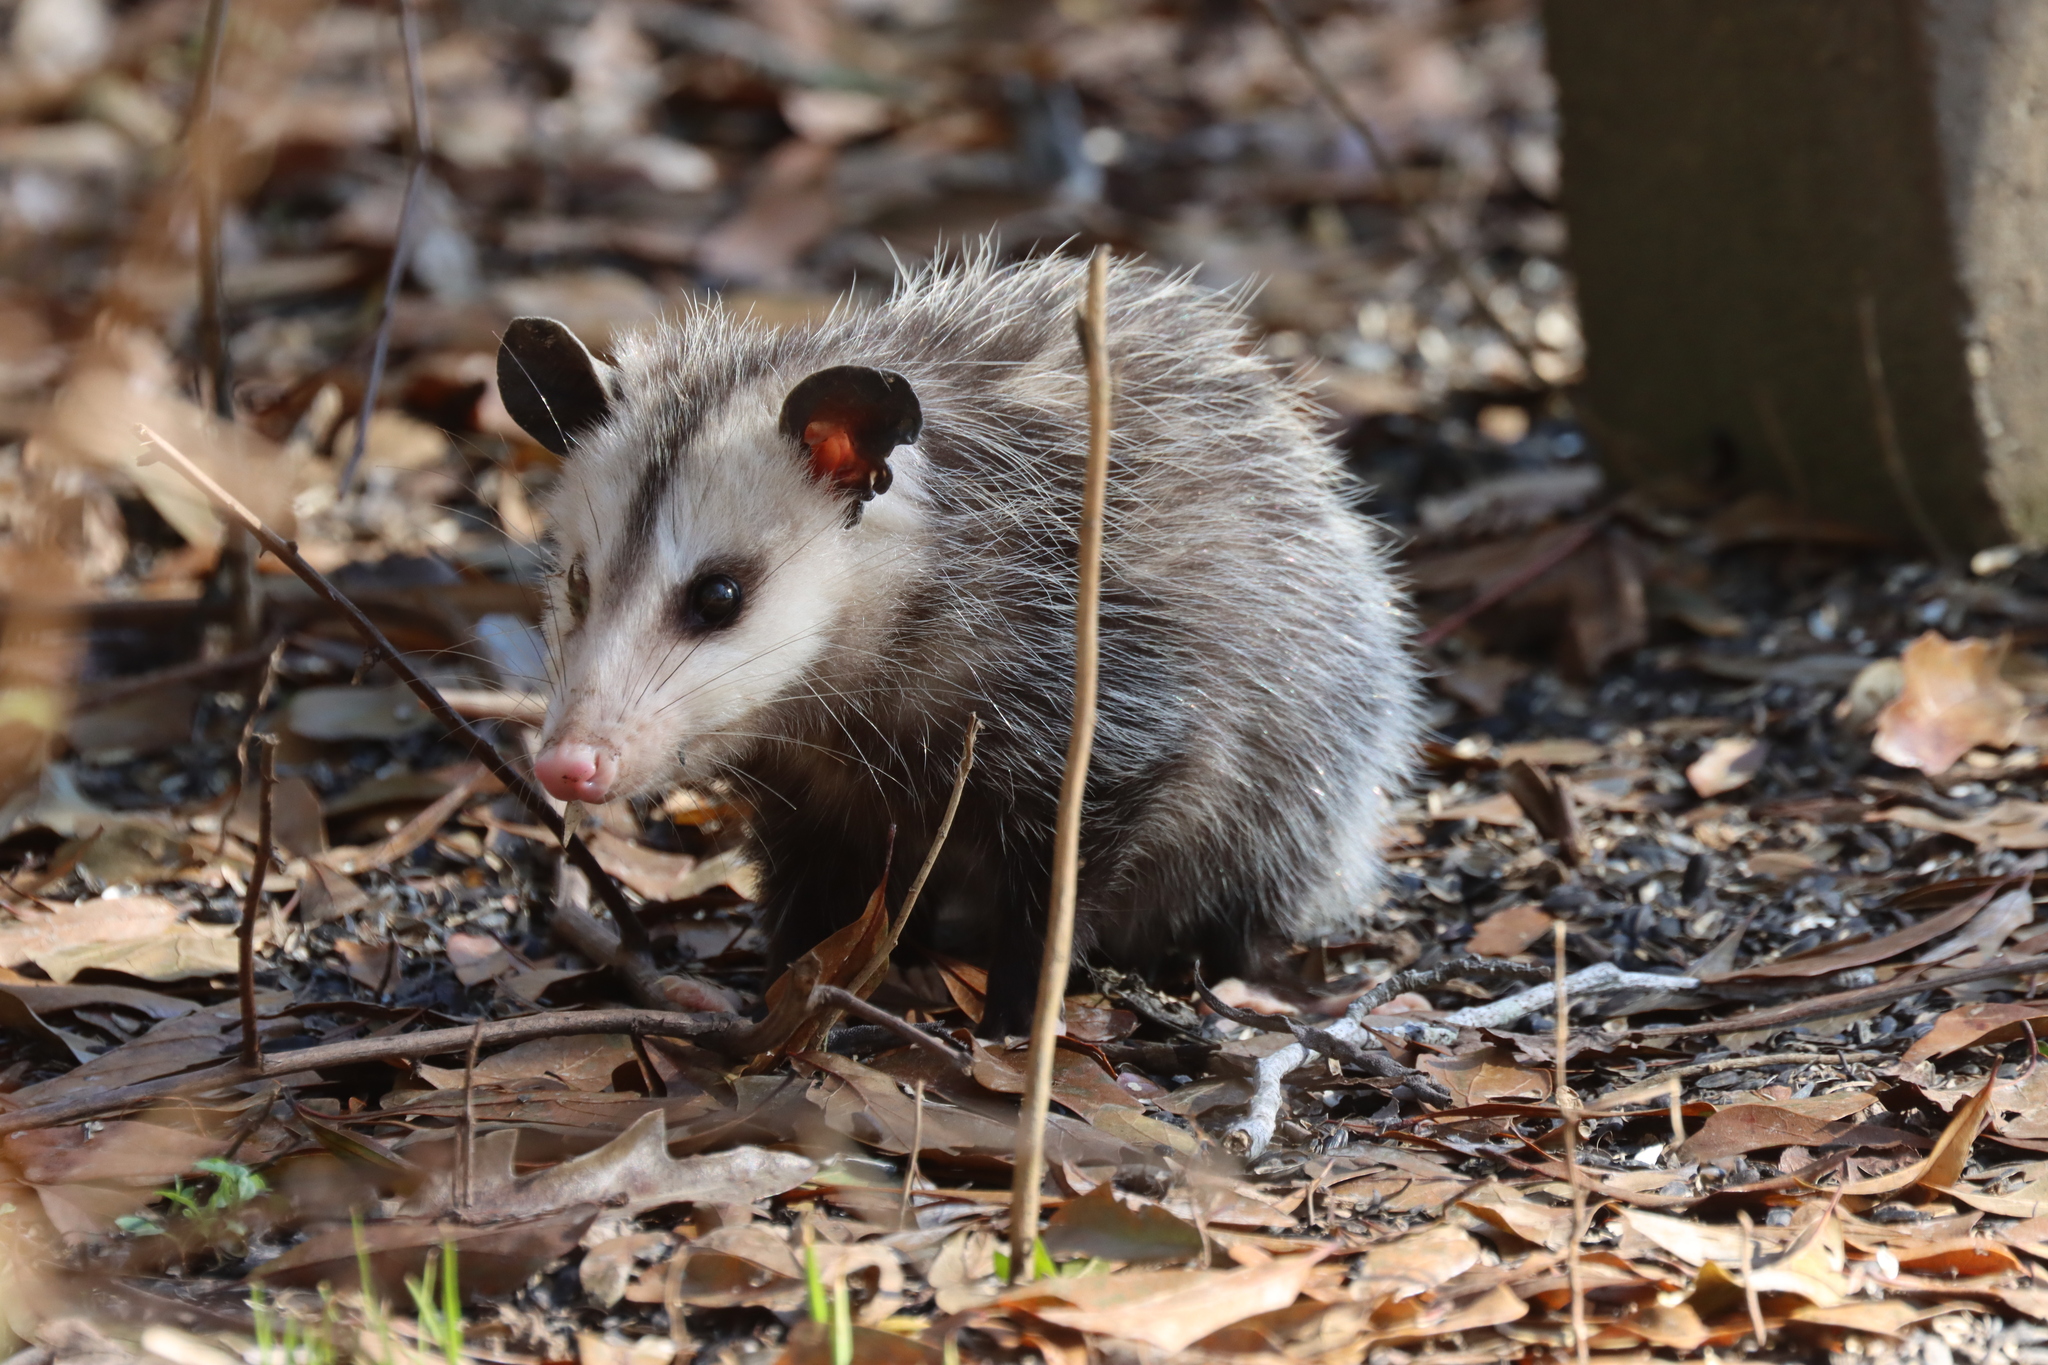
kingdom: Animalia
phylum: Chordata
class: Mammalia
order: Didelphimorphia
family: Didelphidae
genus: Didelphis
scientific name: Didelphis virginiana
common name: Virginia opossum
